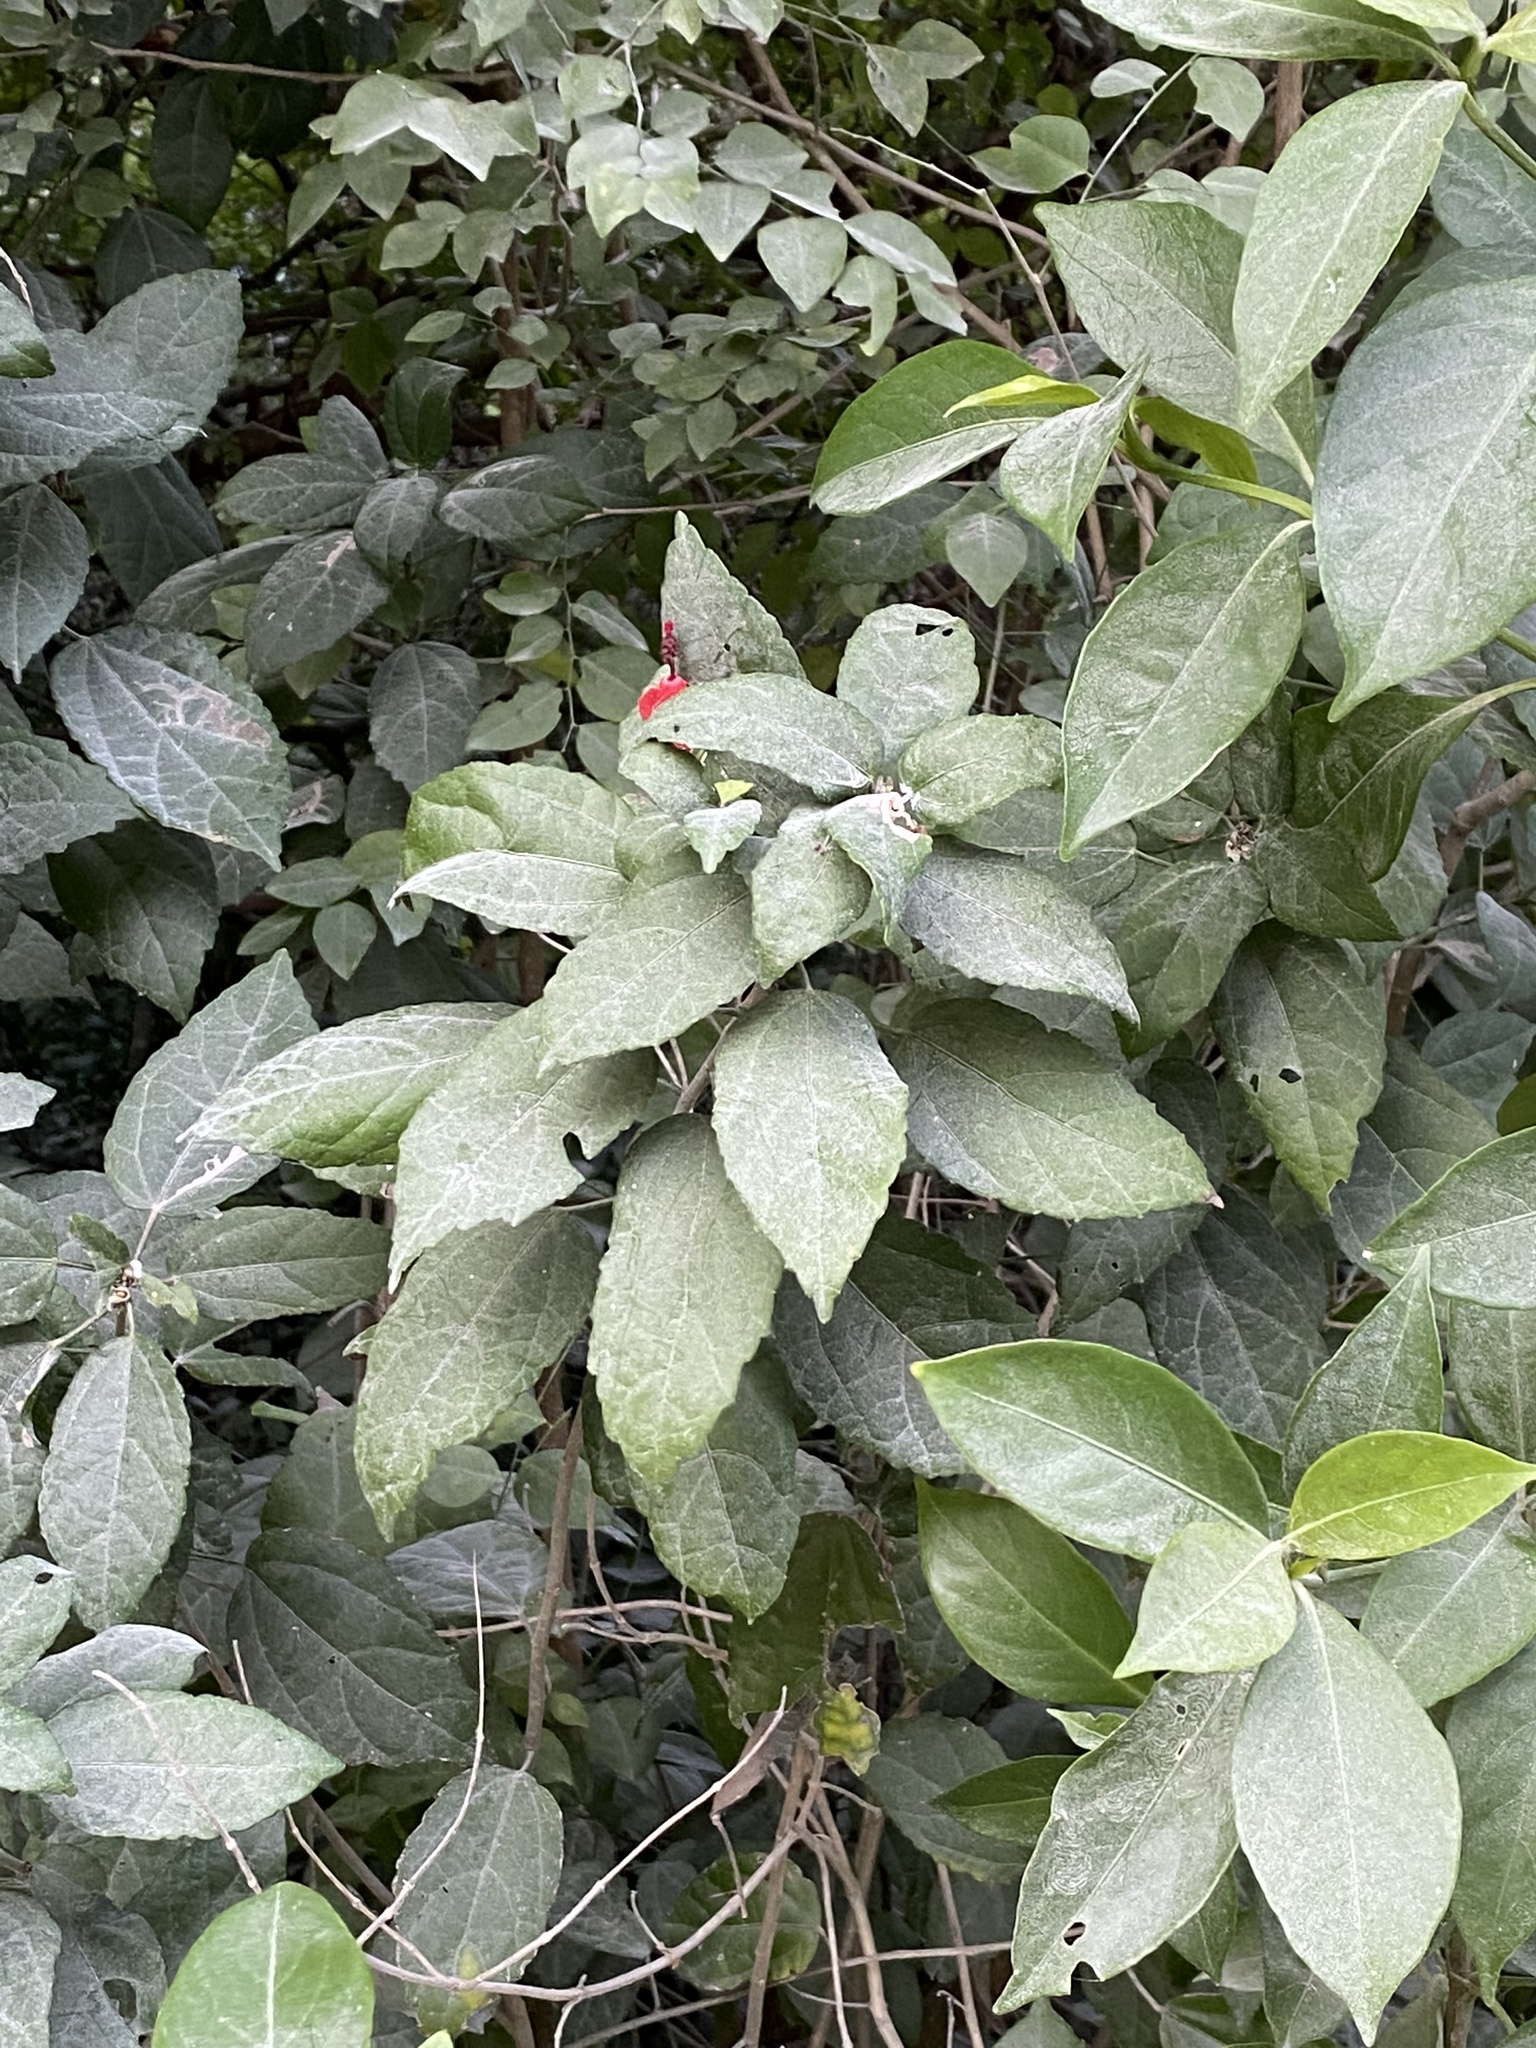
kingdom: Plantae
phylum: Tracheophyta
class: Magnoliopsida
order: Malvales
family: Malvaceae
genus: Malvaviscus
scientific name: Malvaviscus arboreus
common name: Wax mallow
